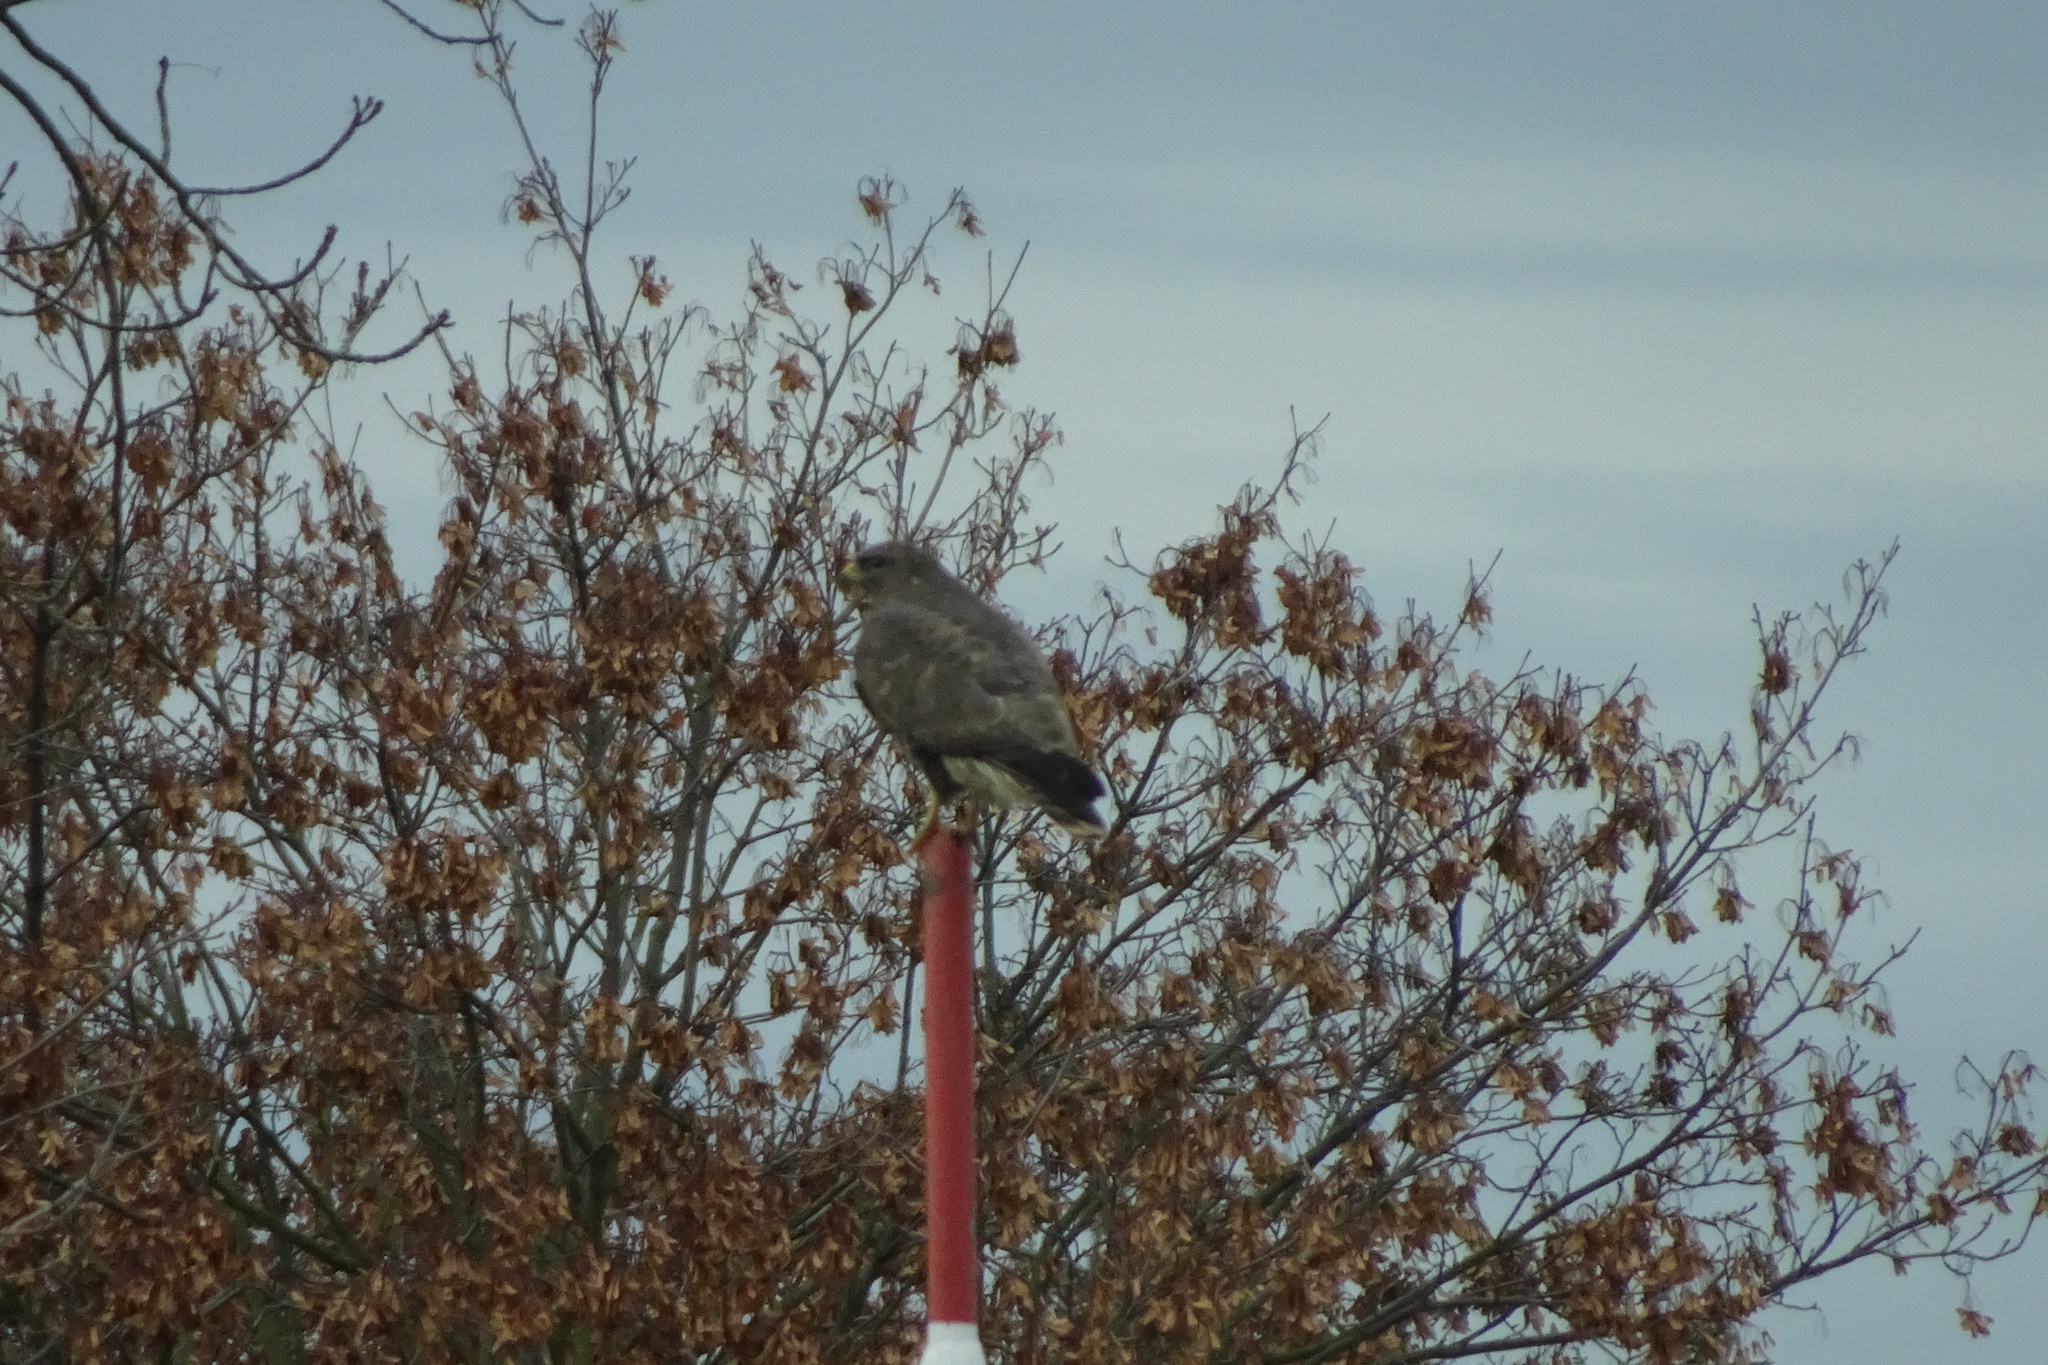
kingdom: Animalia
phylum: Chordata
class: Aves
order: Accipitriformes
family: Accipitridae
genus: Buteo
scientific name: Buteo buteo
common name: Common buzzard
